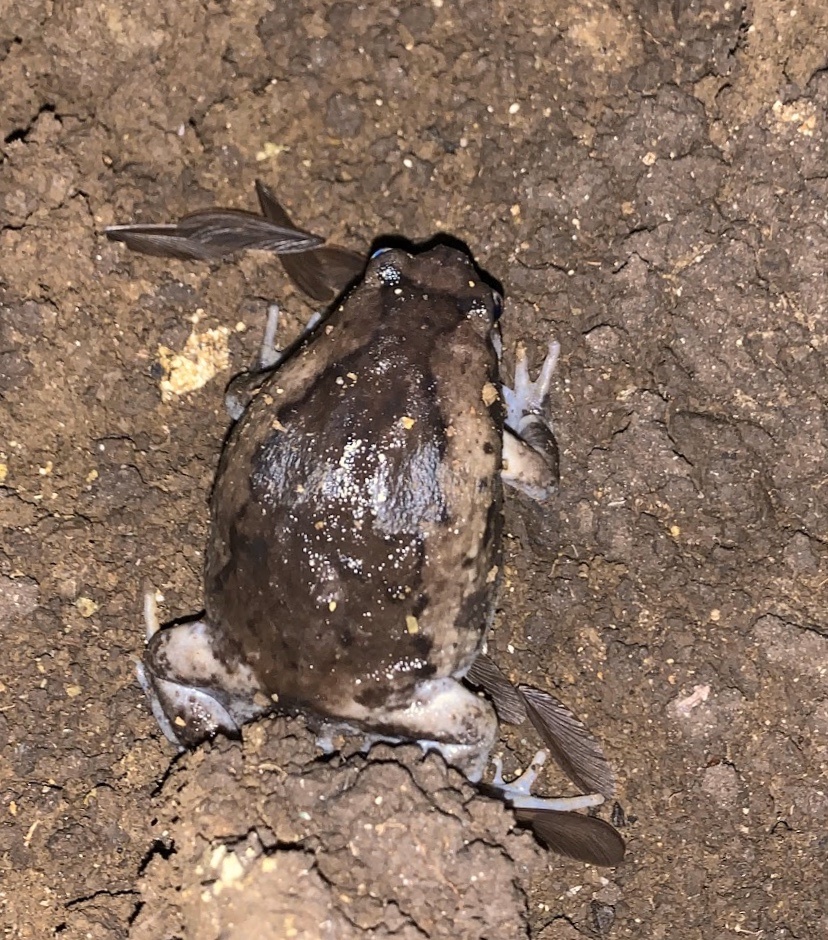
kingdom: Animalia
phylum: Chordata
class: Amphibia
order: Anura
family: Microhylidae
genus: Kaloula
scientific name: Kaloula pulchra
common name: Common,banded bullfrog
